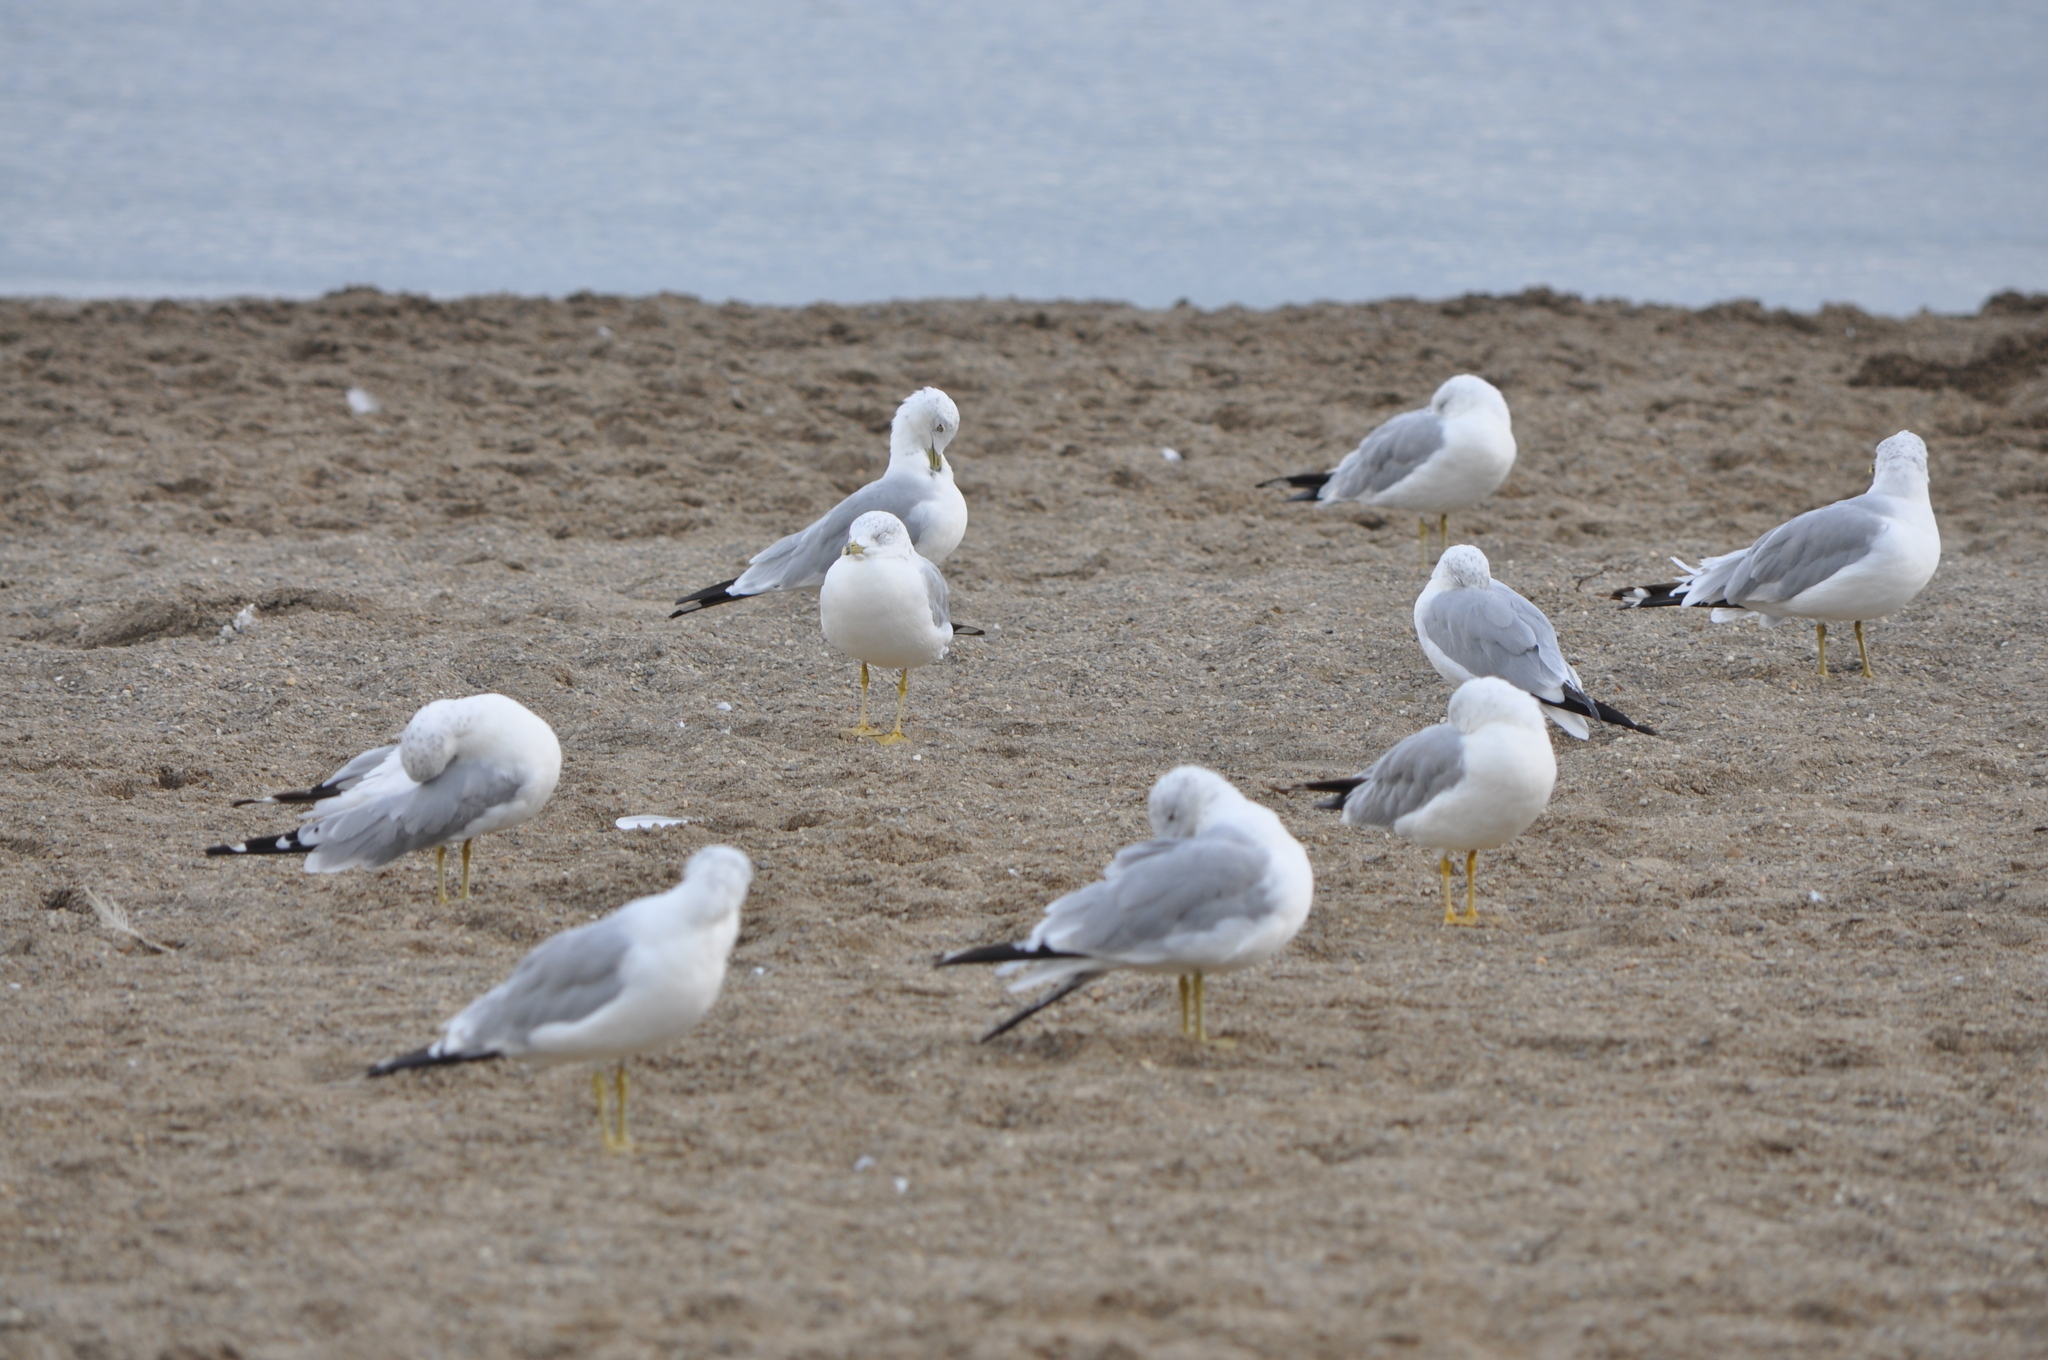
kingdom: Animalia
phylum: Chordata
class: Aves
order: Charadriiformes
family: Laridae
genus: Larus
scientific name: Larus delawarensis
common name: Ring-billed gull
